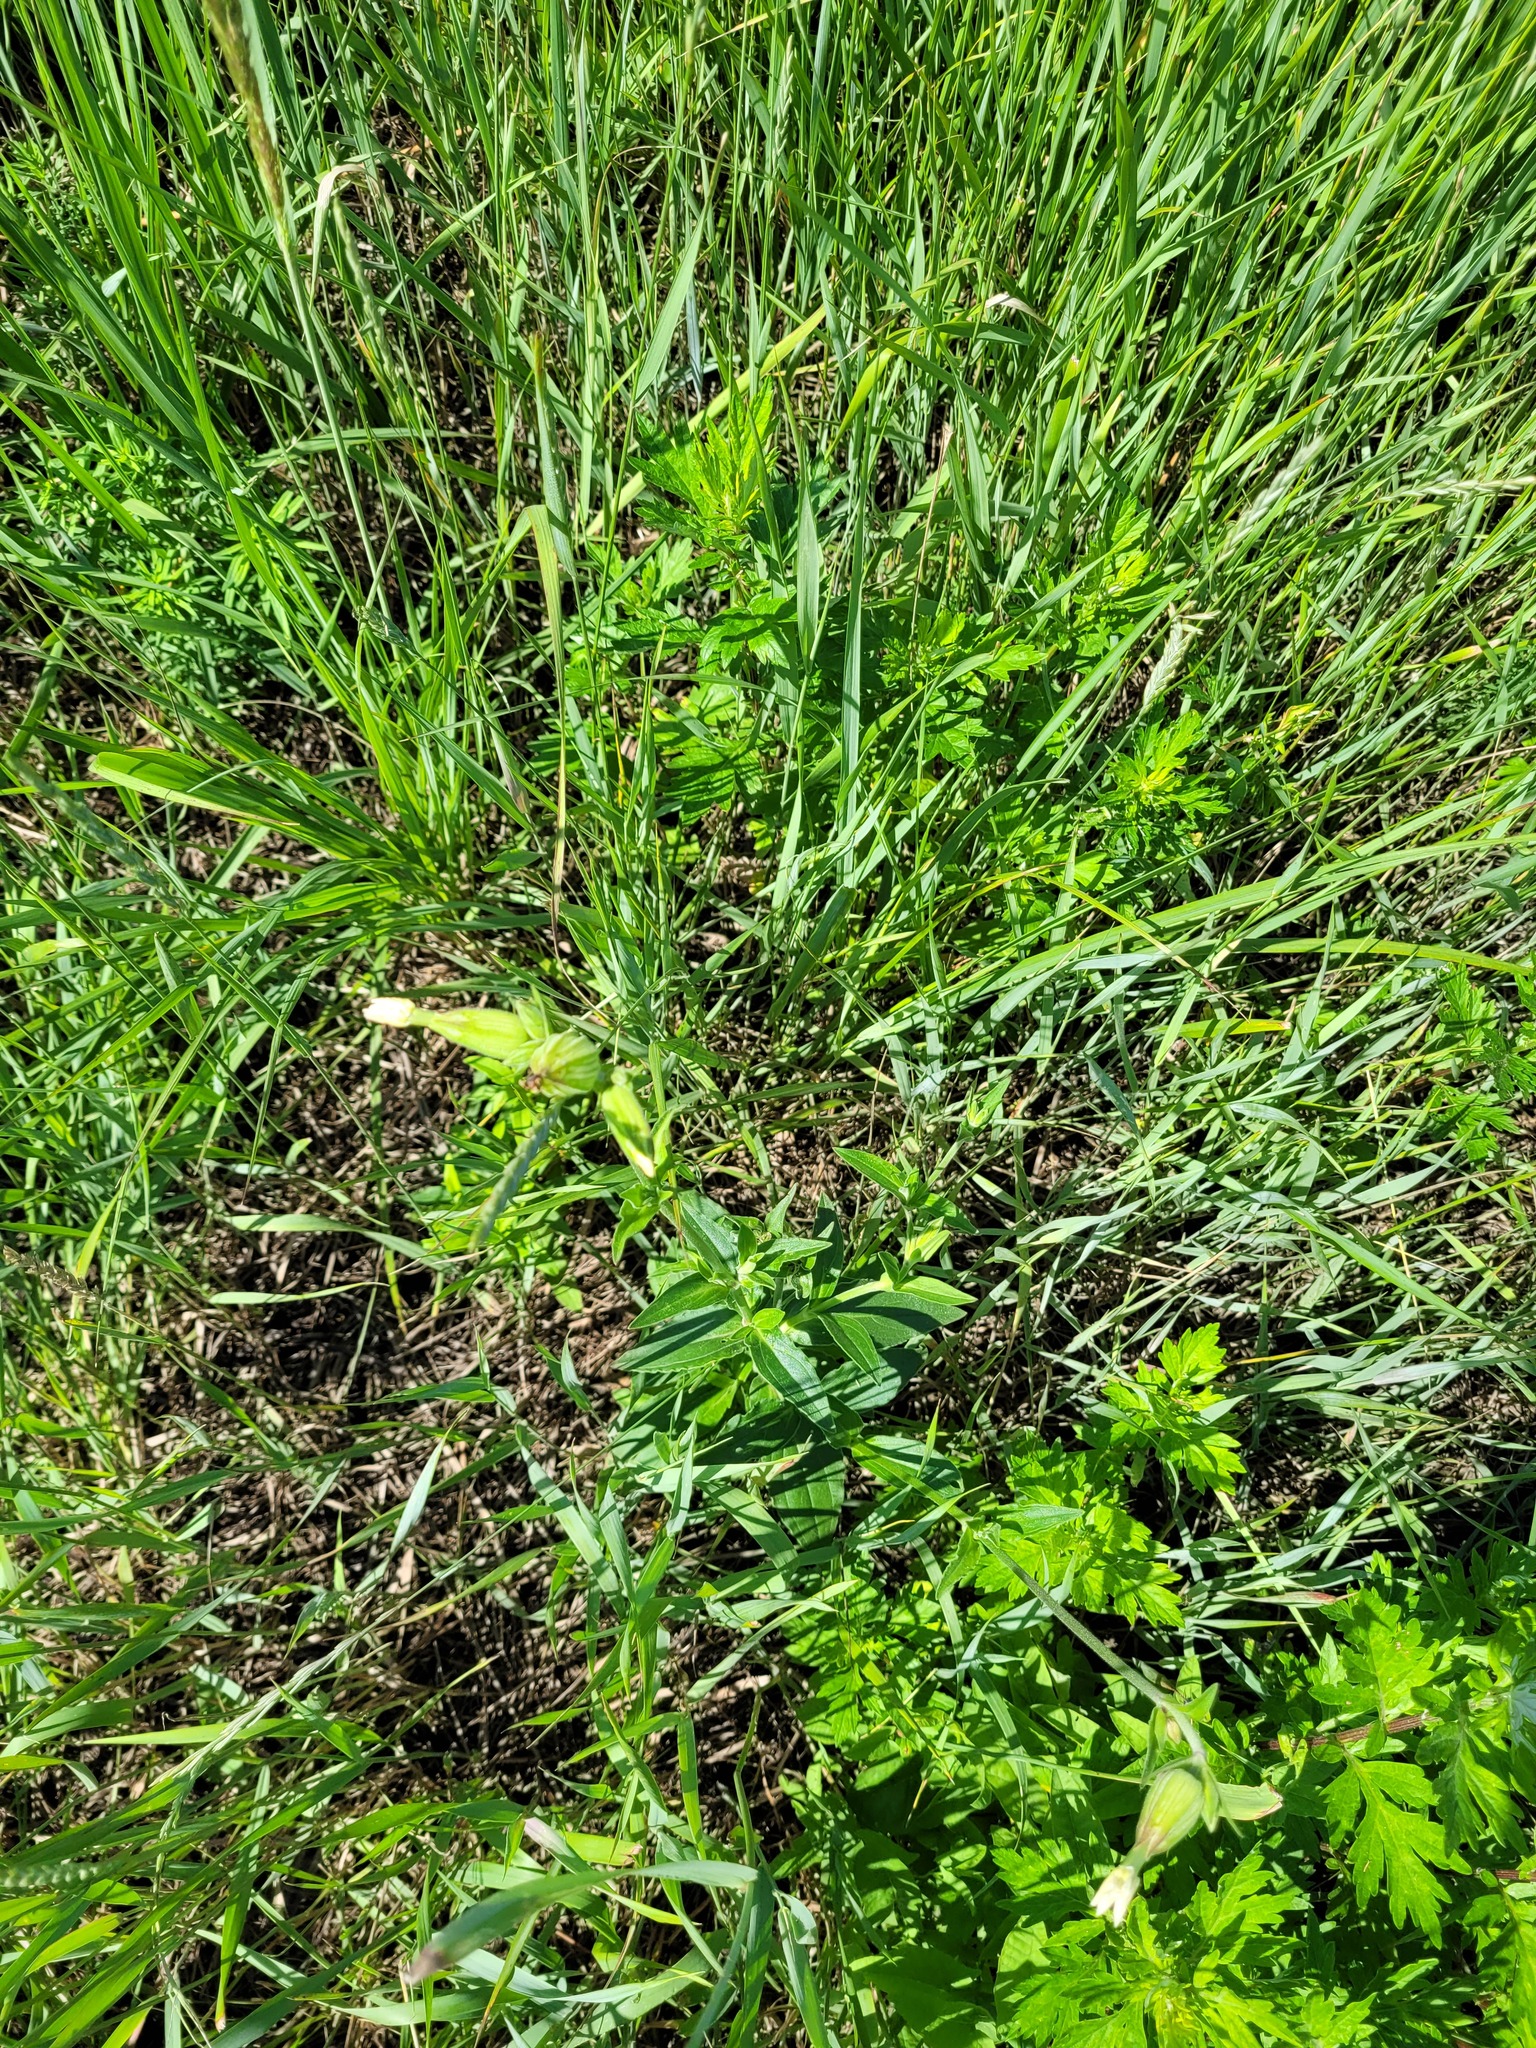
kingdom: Plantae
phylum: Tracheophyta
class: Magnoliopsida
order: Caryophyllales
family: Caryophyllaceae
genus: Silene
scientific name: Silene latifolia
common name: White campion
